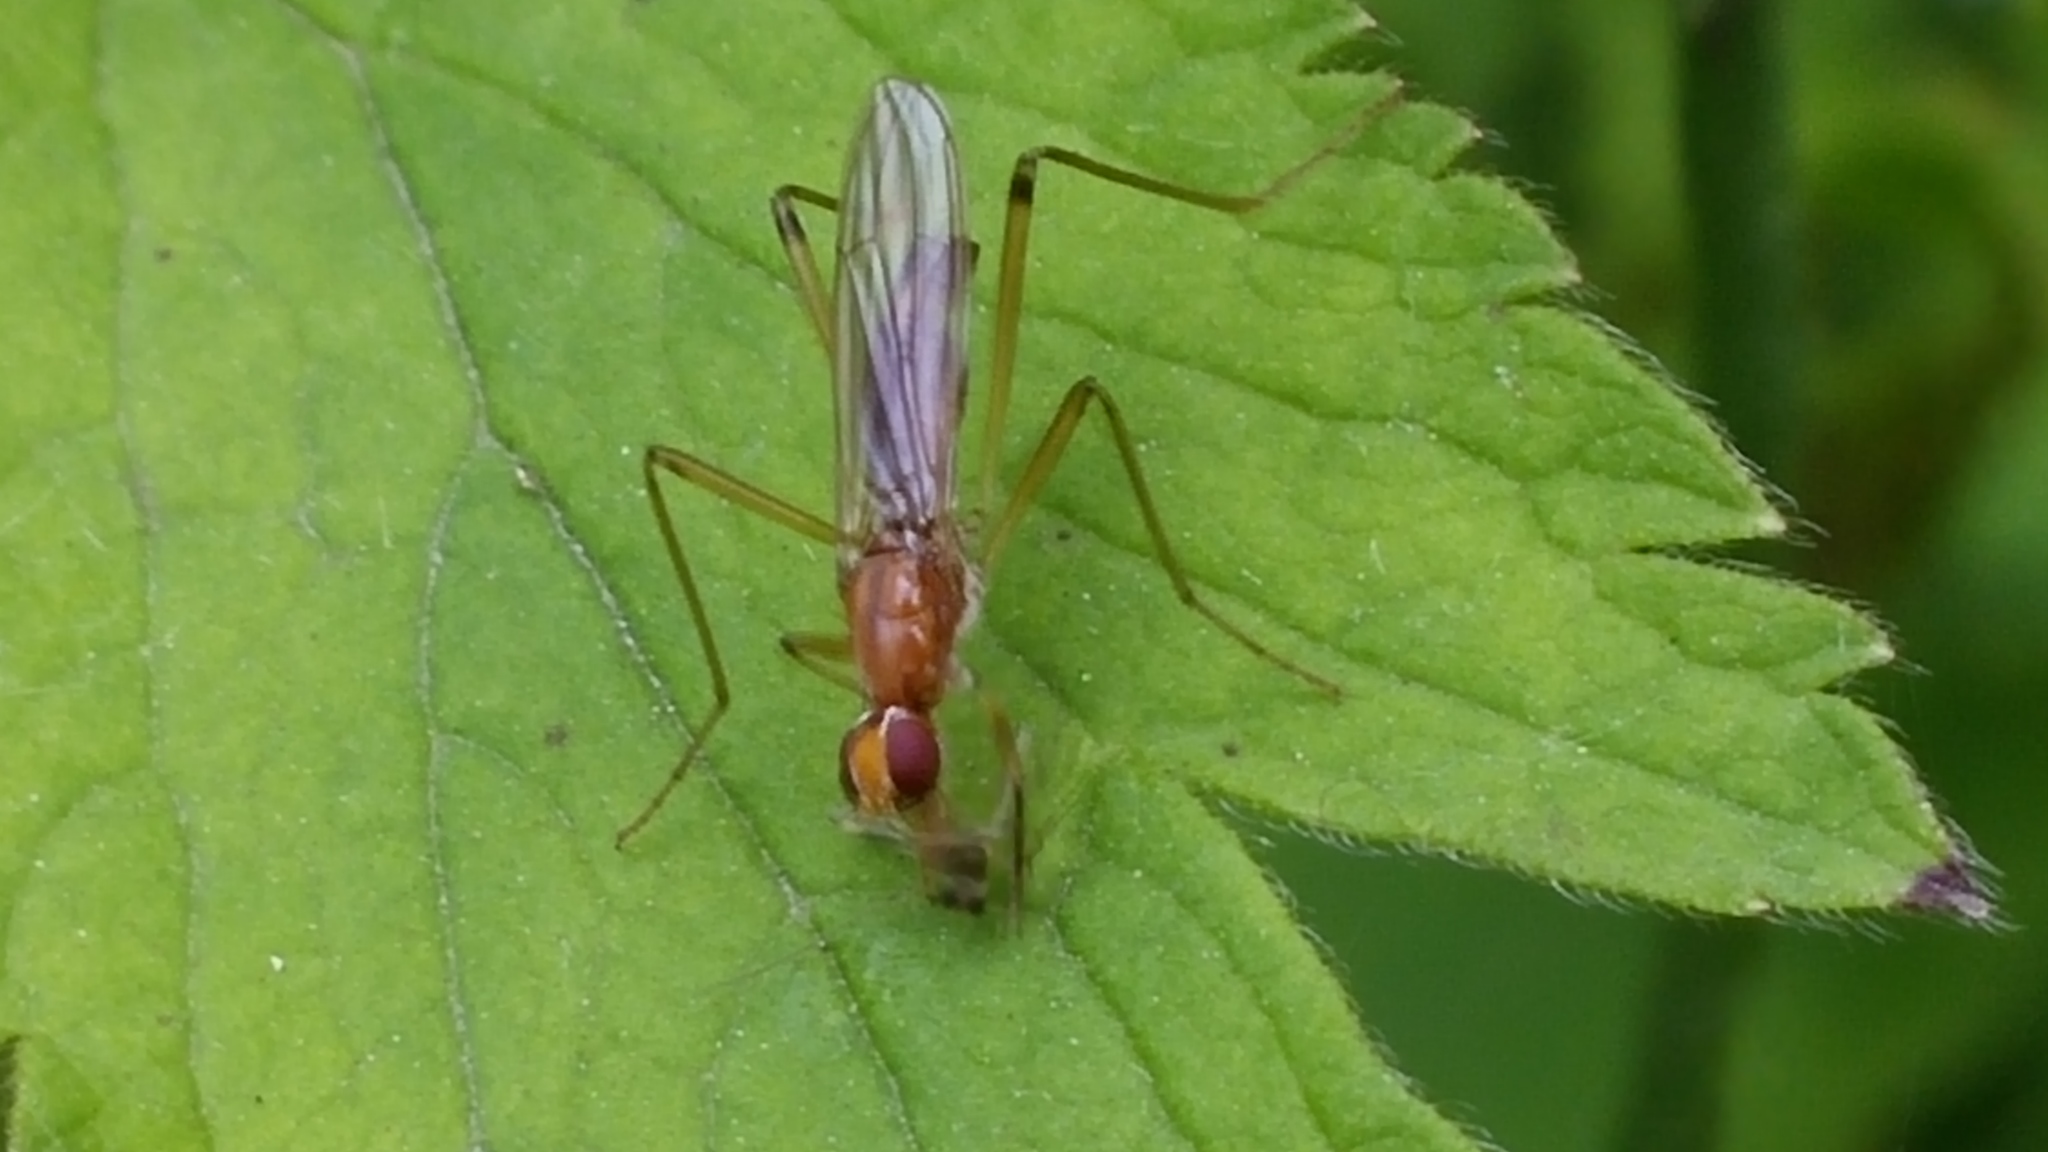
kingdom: Animalia
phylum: Arthropoda
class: Insecta
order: Diptera
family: Micropezidae
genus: Compsobata
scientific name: Compsobata univitta
